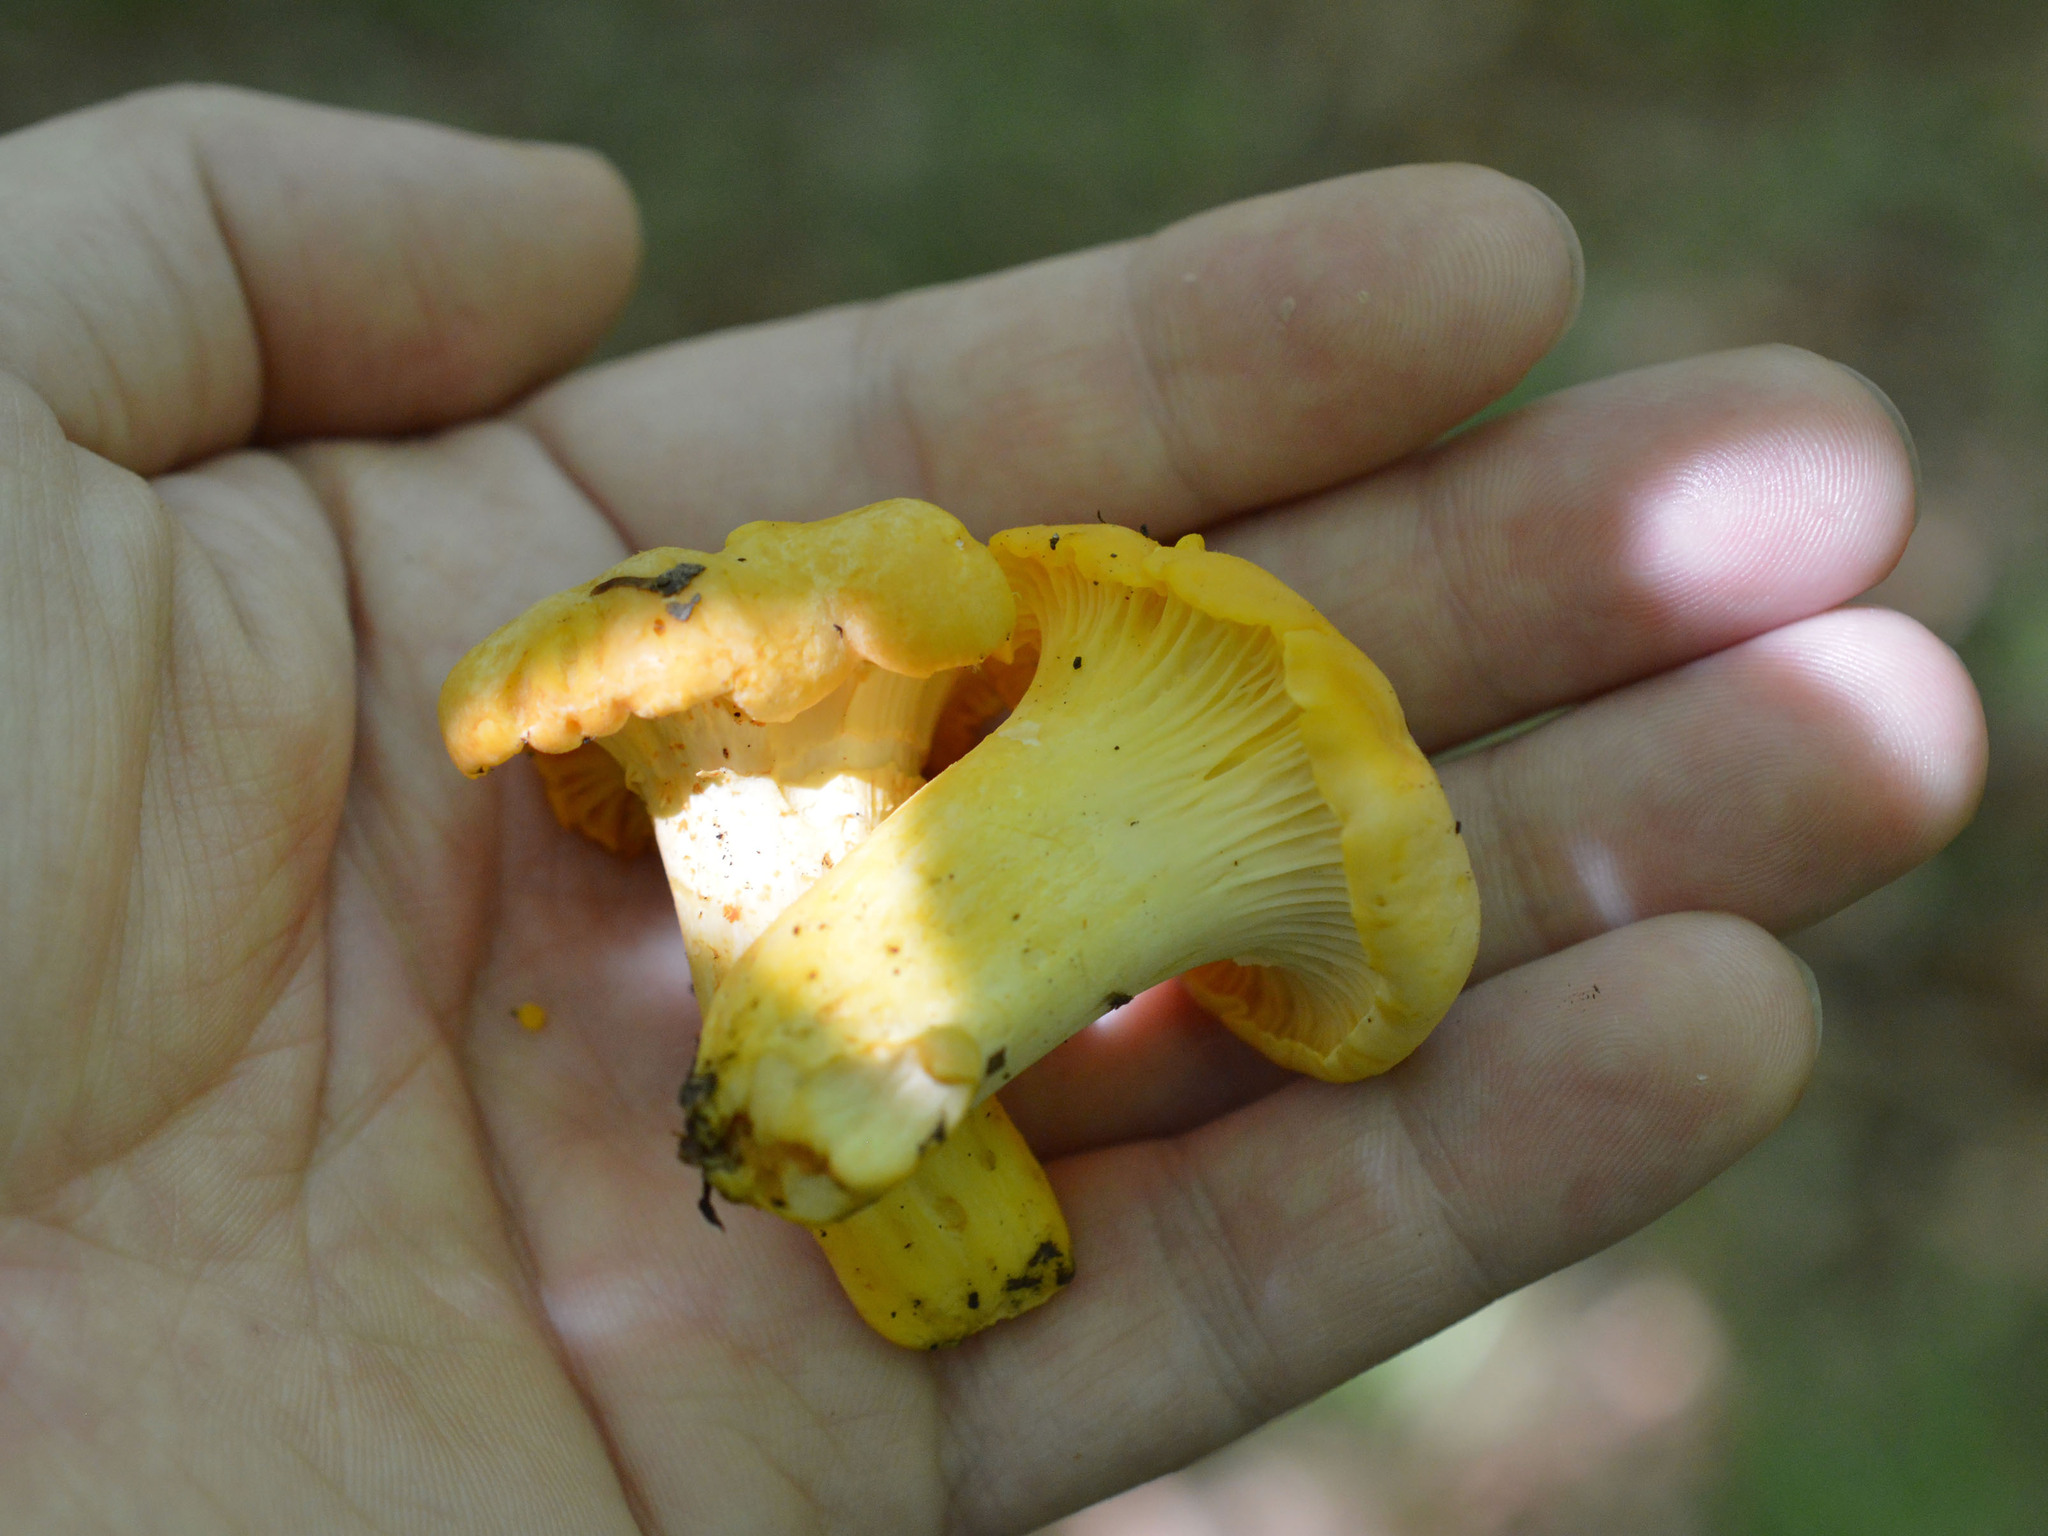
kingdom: Fungi
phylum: Basidiomycota
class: Agaricomycetes
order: Cantharellales
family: Hydnaceae
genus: Cantharellus
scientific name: Cantharellus cibarius
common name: Chanterelle
